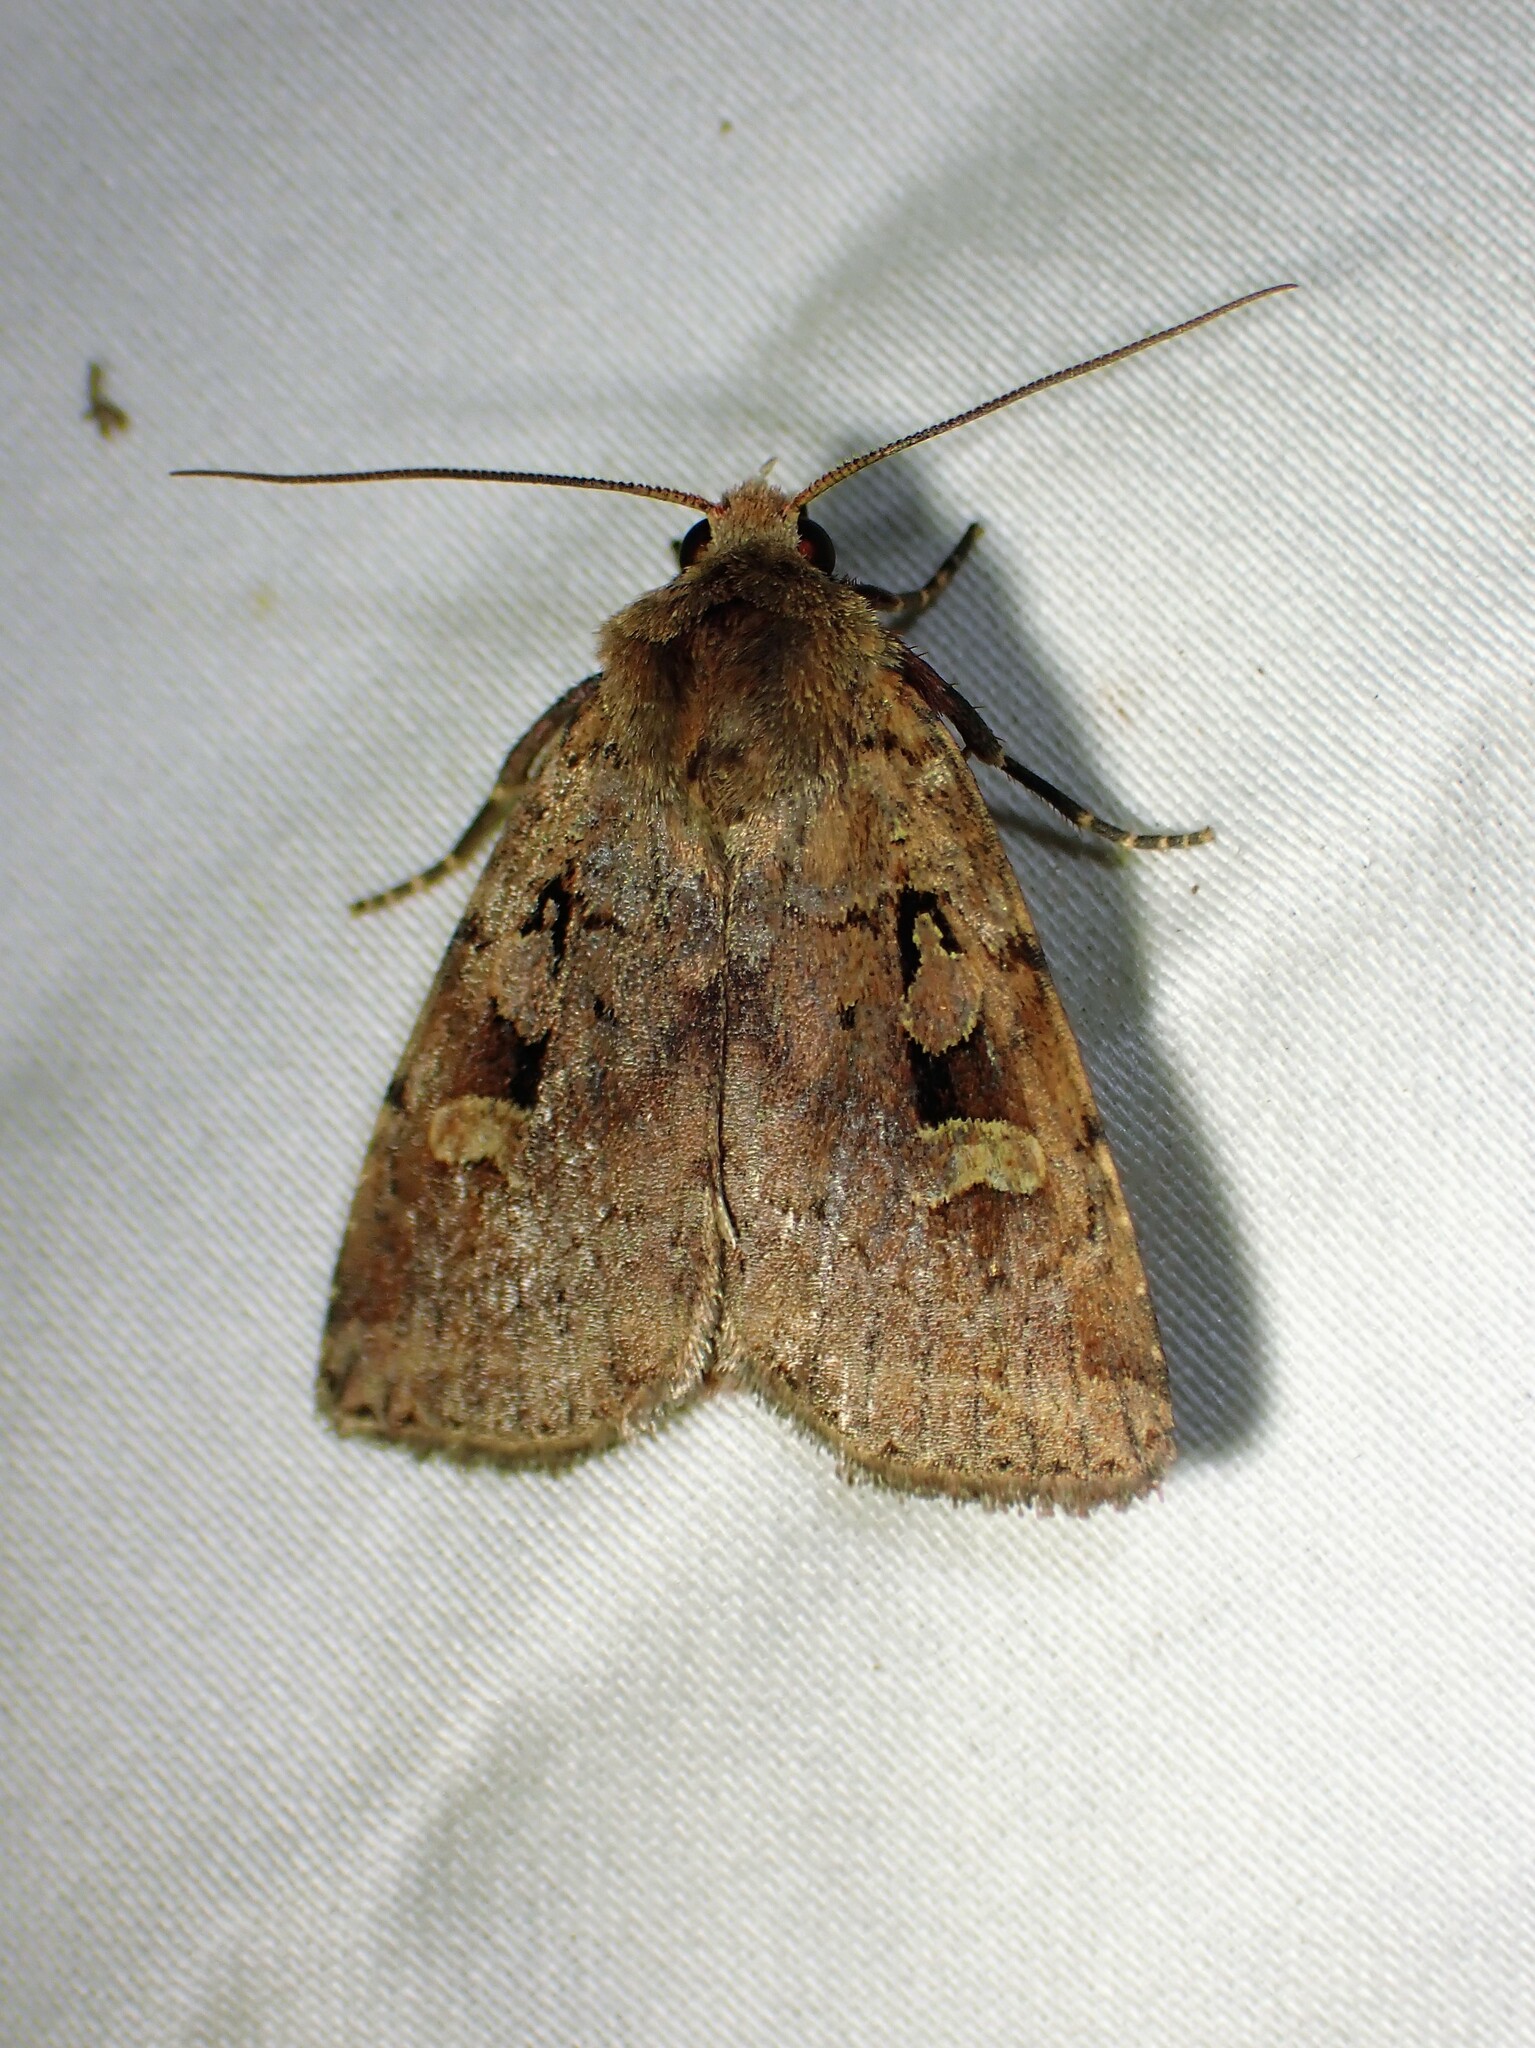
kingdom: Animalia
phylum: Arthropoda
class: Insecta
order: Lepidoptera
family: Noctuidae
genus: Diarsia
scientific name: Diarsia jucunda
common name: Smaller pinkish dart
